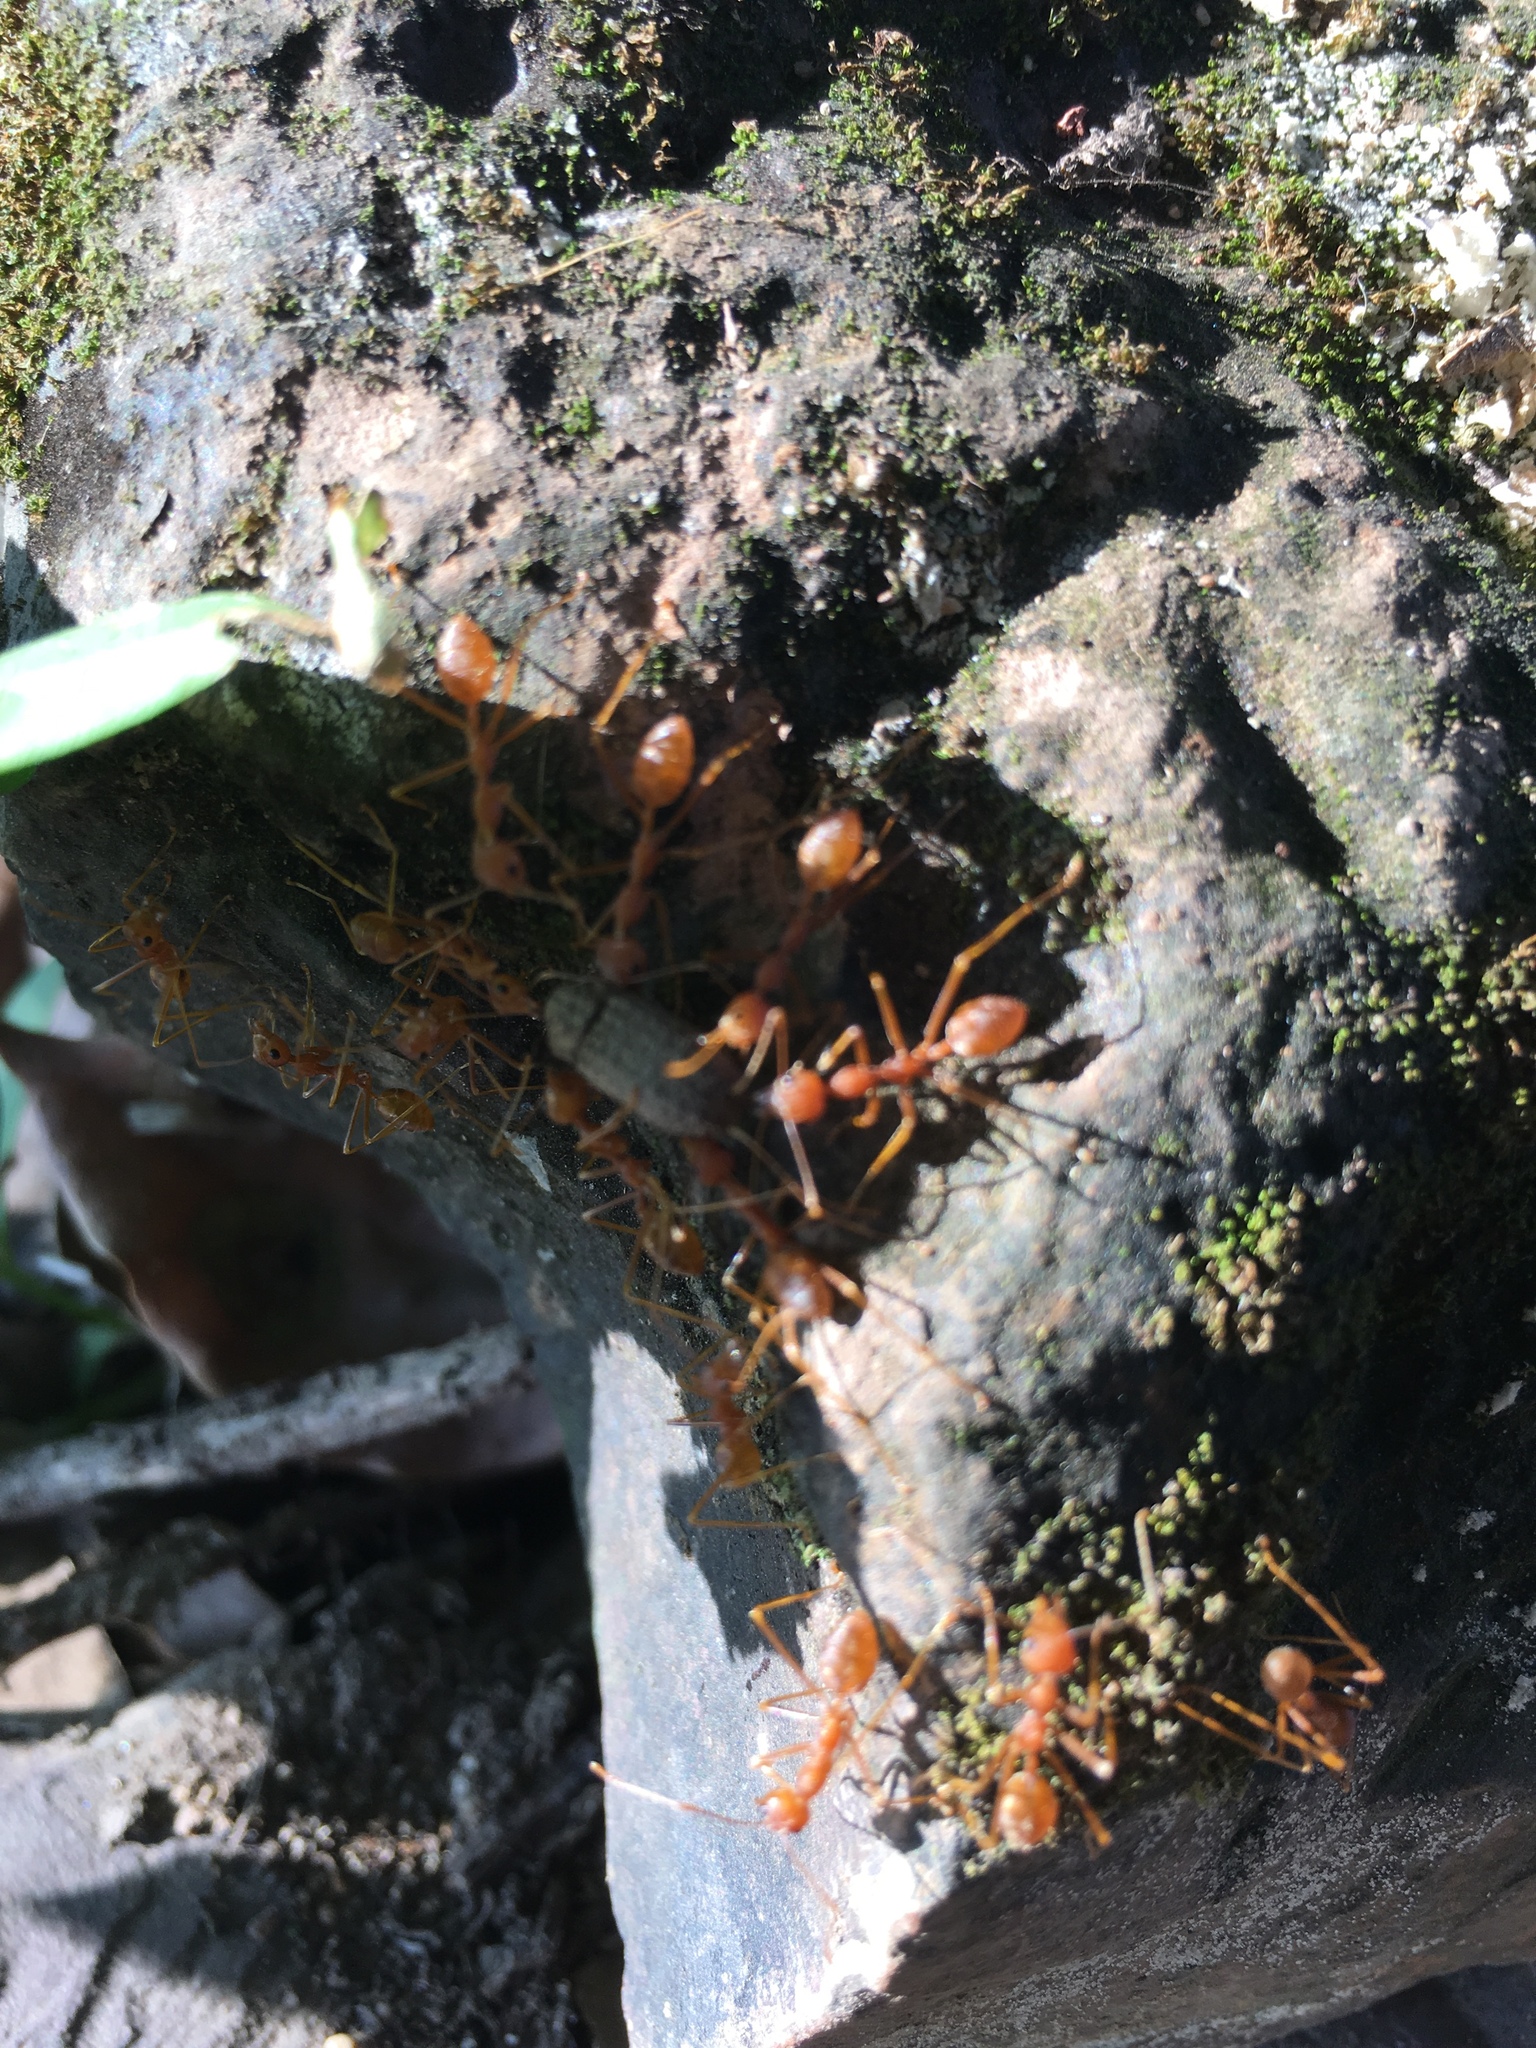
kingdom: Animalia
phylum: Arthropoda
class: Insecta
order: Hymenoptera
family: Formicidae
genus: Oecophylla
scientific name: Oecophylla smaragdina
